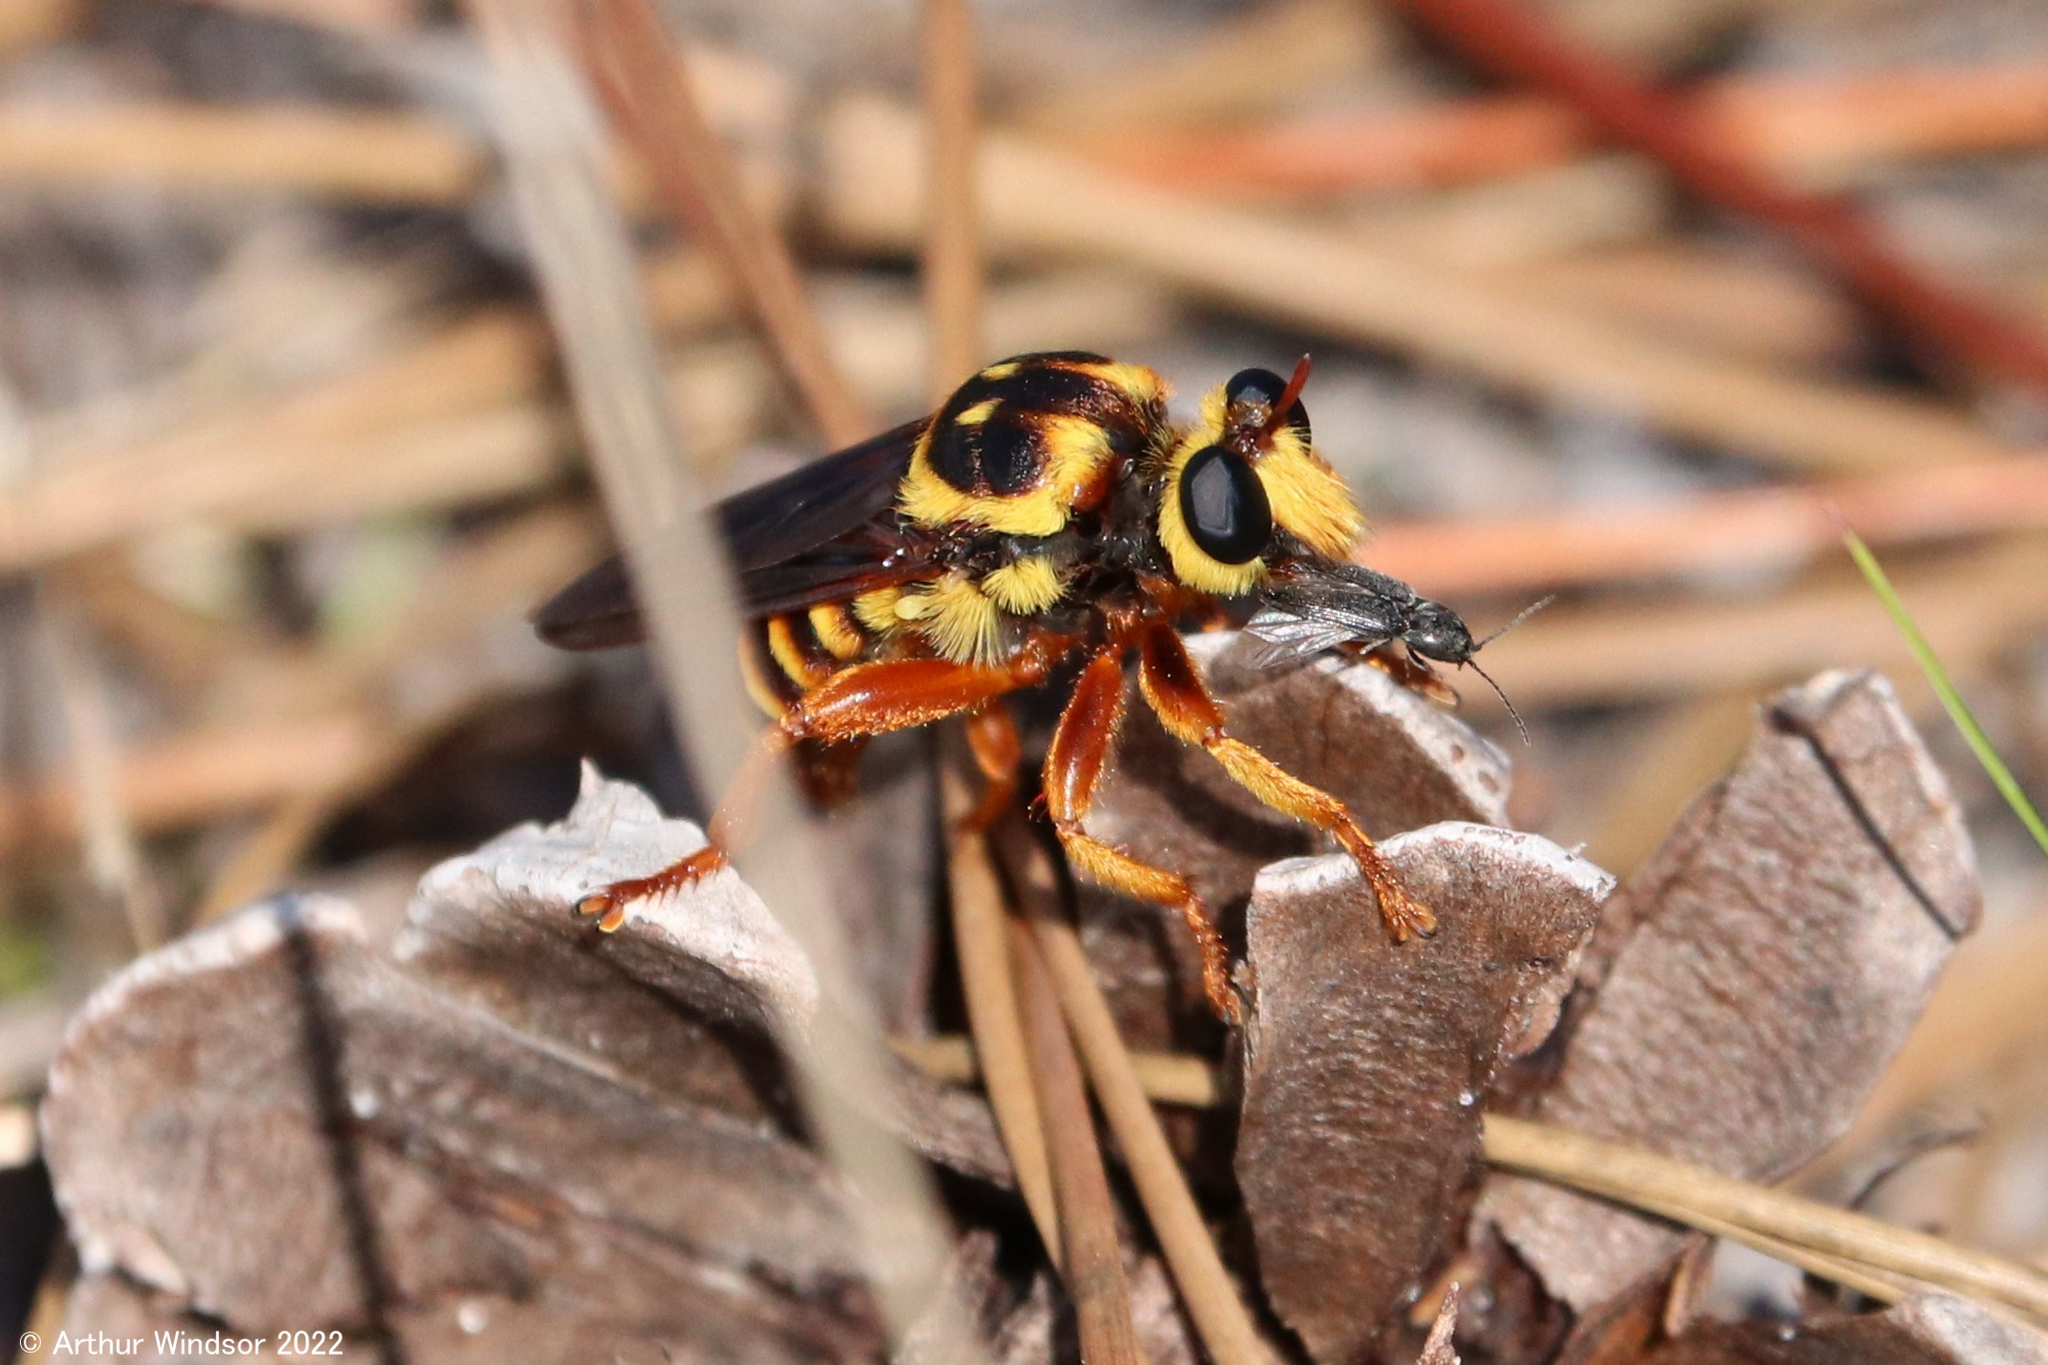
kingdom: Animalia
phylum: Arthropoda
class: Insecta
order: Diptera
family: Asilidae
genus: Laphria
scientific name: Laphria saffrana
